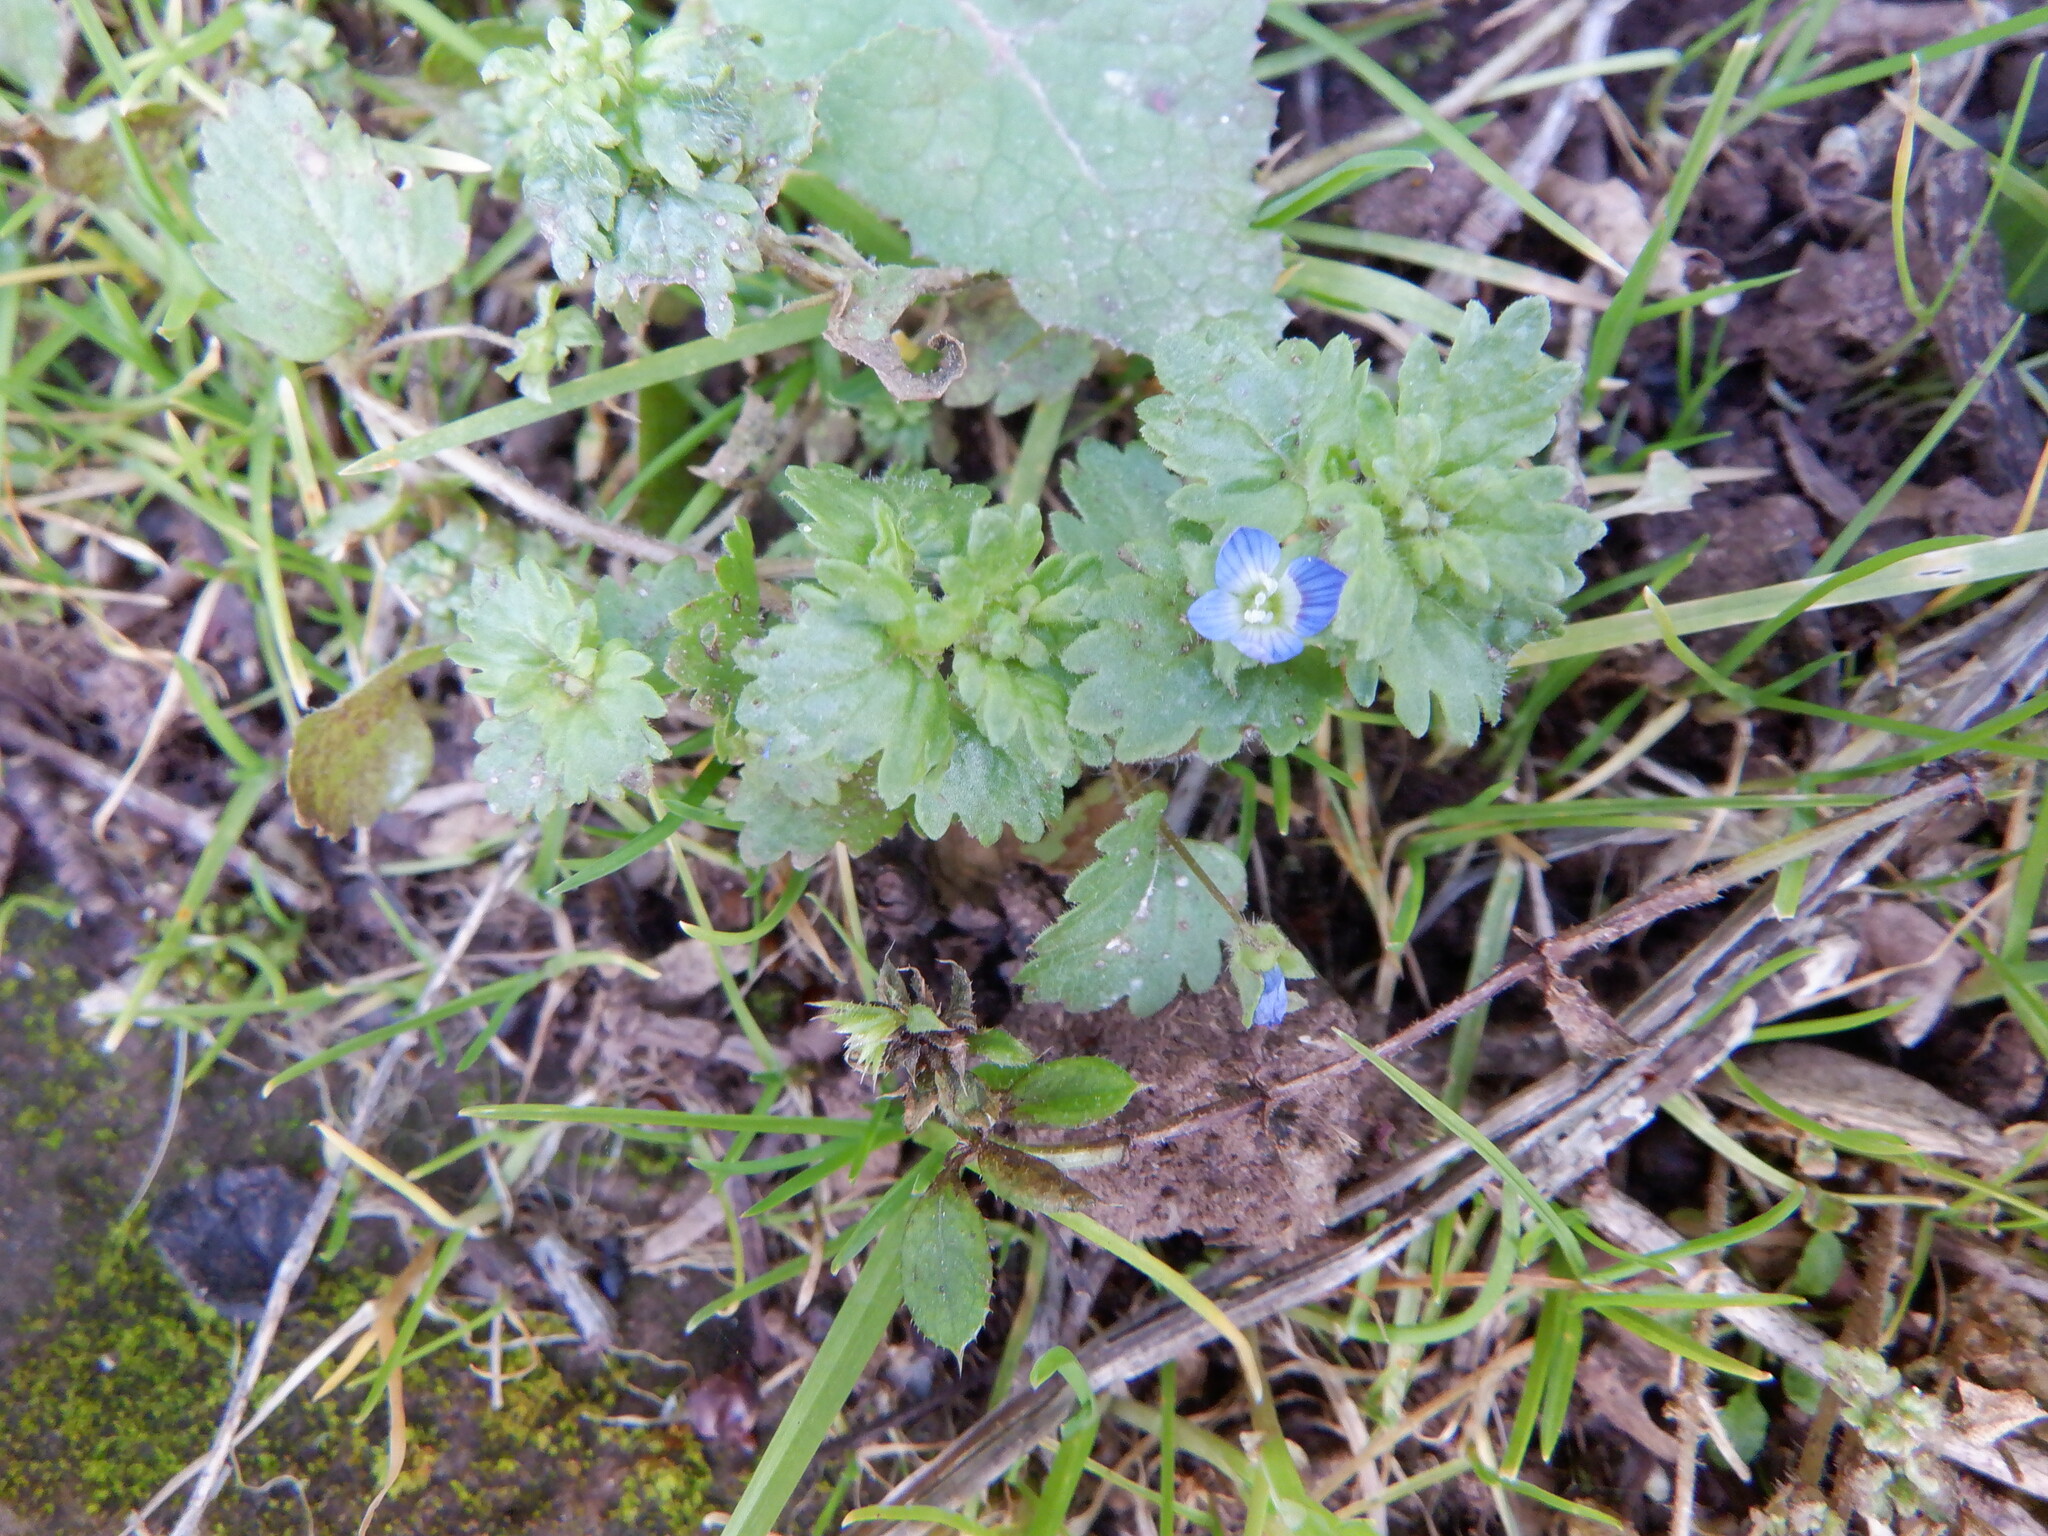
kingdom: Plantae
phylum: Tracheophyta
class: Magnoliopsida
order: Lamiales
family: Plantaginaceae
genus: Veronica
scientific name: Veronica persica
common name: Common field-speedwell
